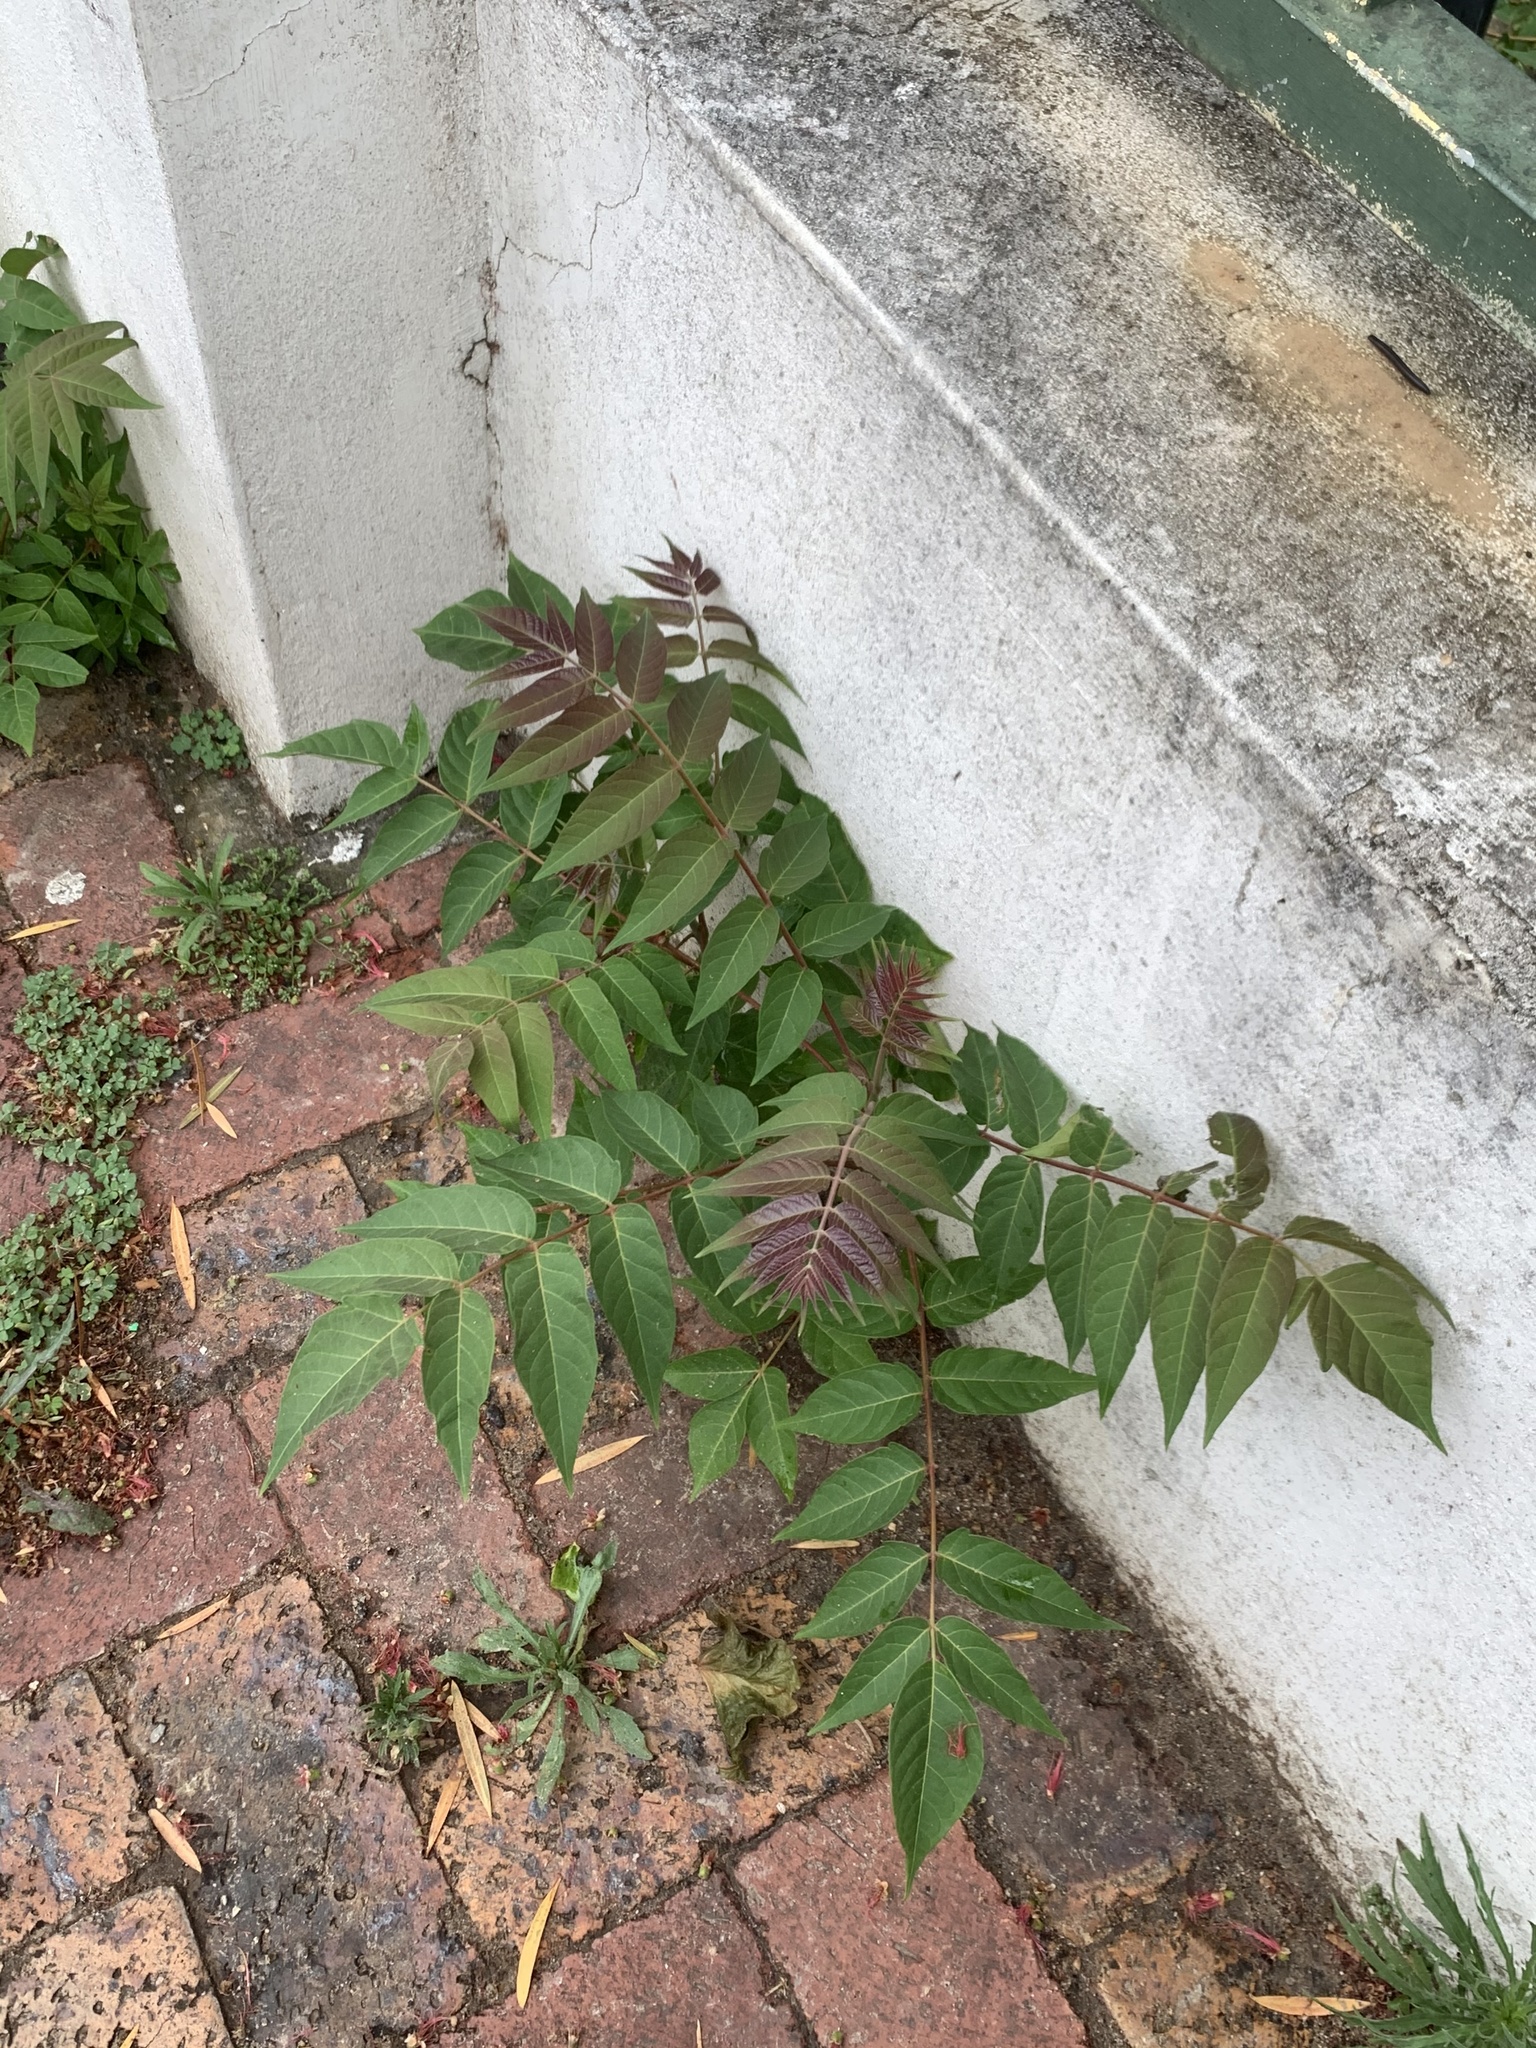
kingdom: Plantae
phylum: Tracheophyta
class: Magnoliopsida
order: Sapindales
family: Simaroubaceae
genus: Ailanthus
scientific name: Ailanthus altissima
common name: Tree-of-heaven
